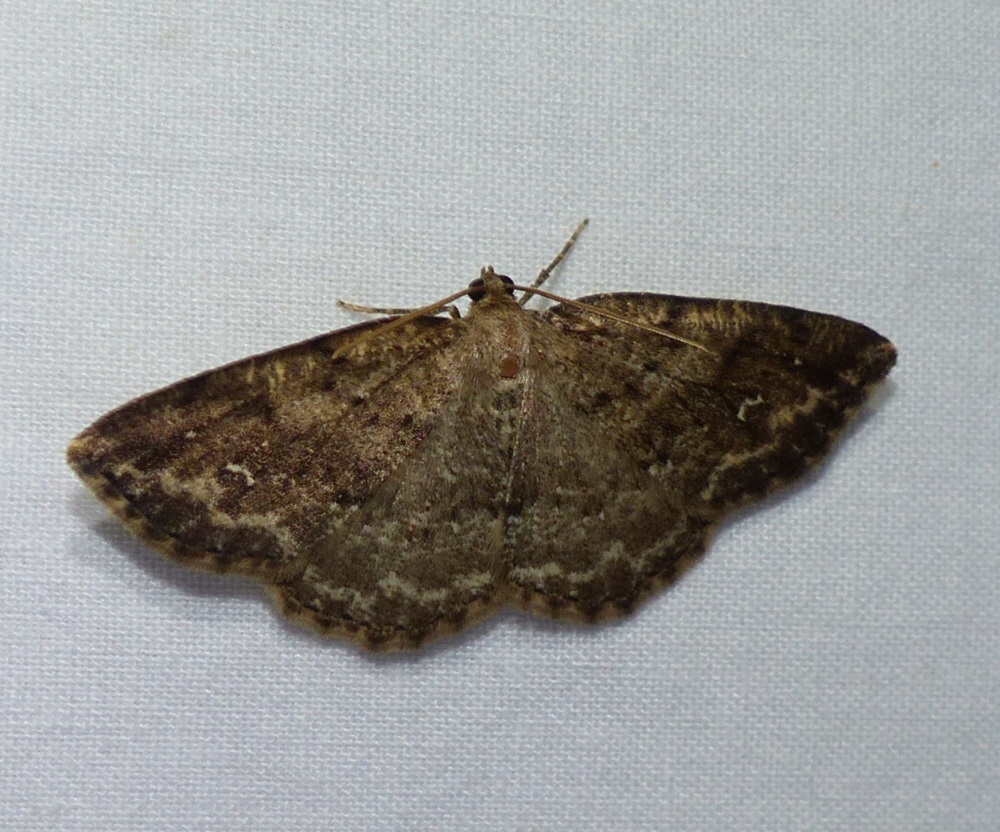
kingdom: Animalia
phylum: Arthropoda
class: Insecta
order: Lepidoptera
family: Geometridae
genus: Homochlodes
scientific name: Homochlodes fritillaria
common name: Pale homochlodes
